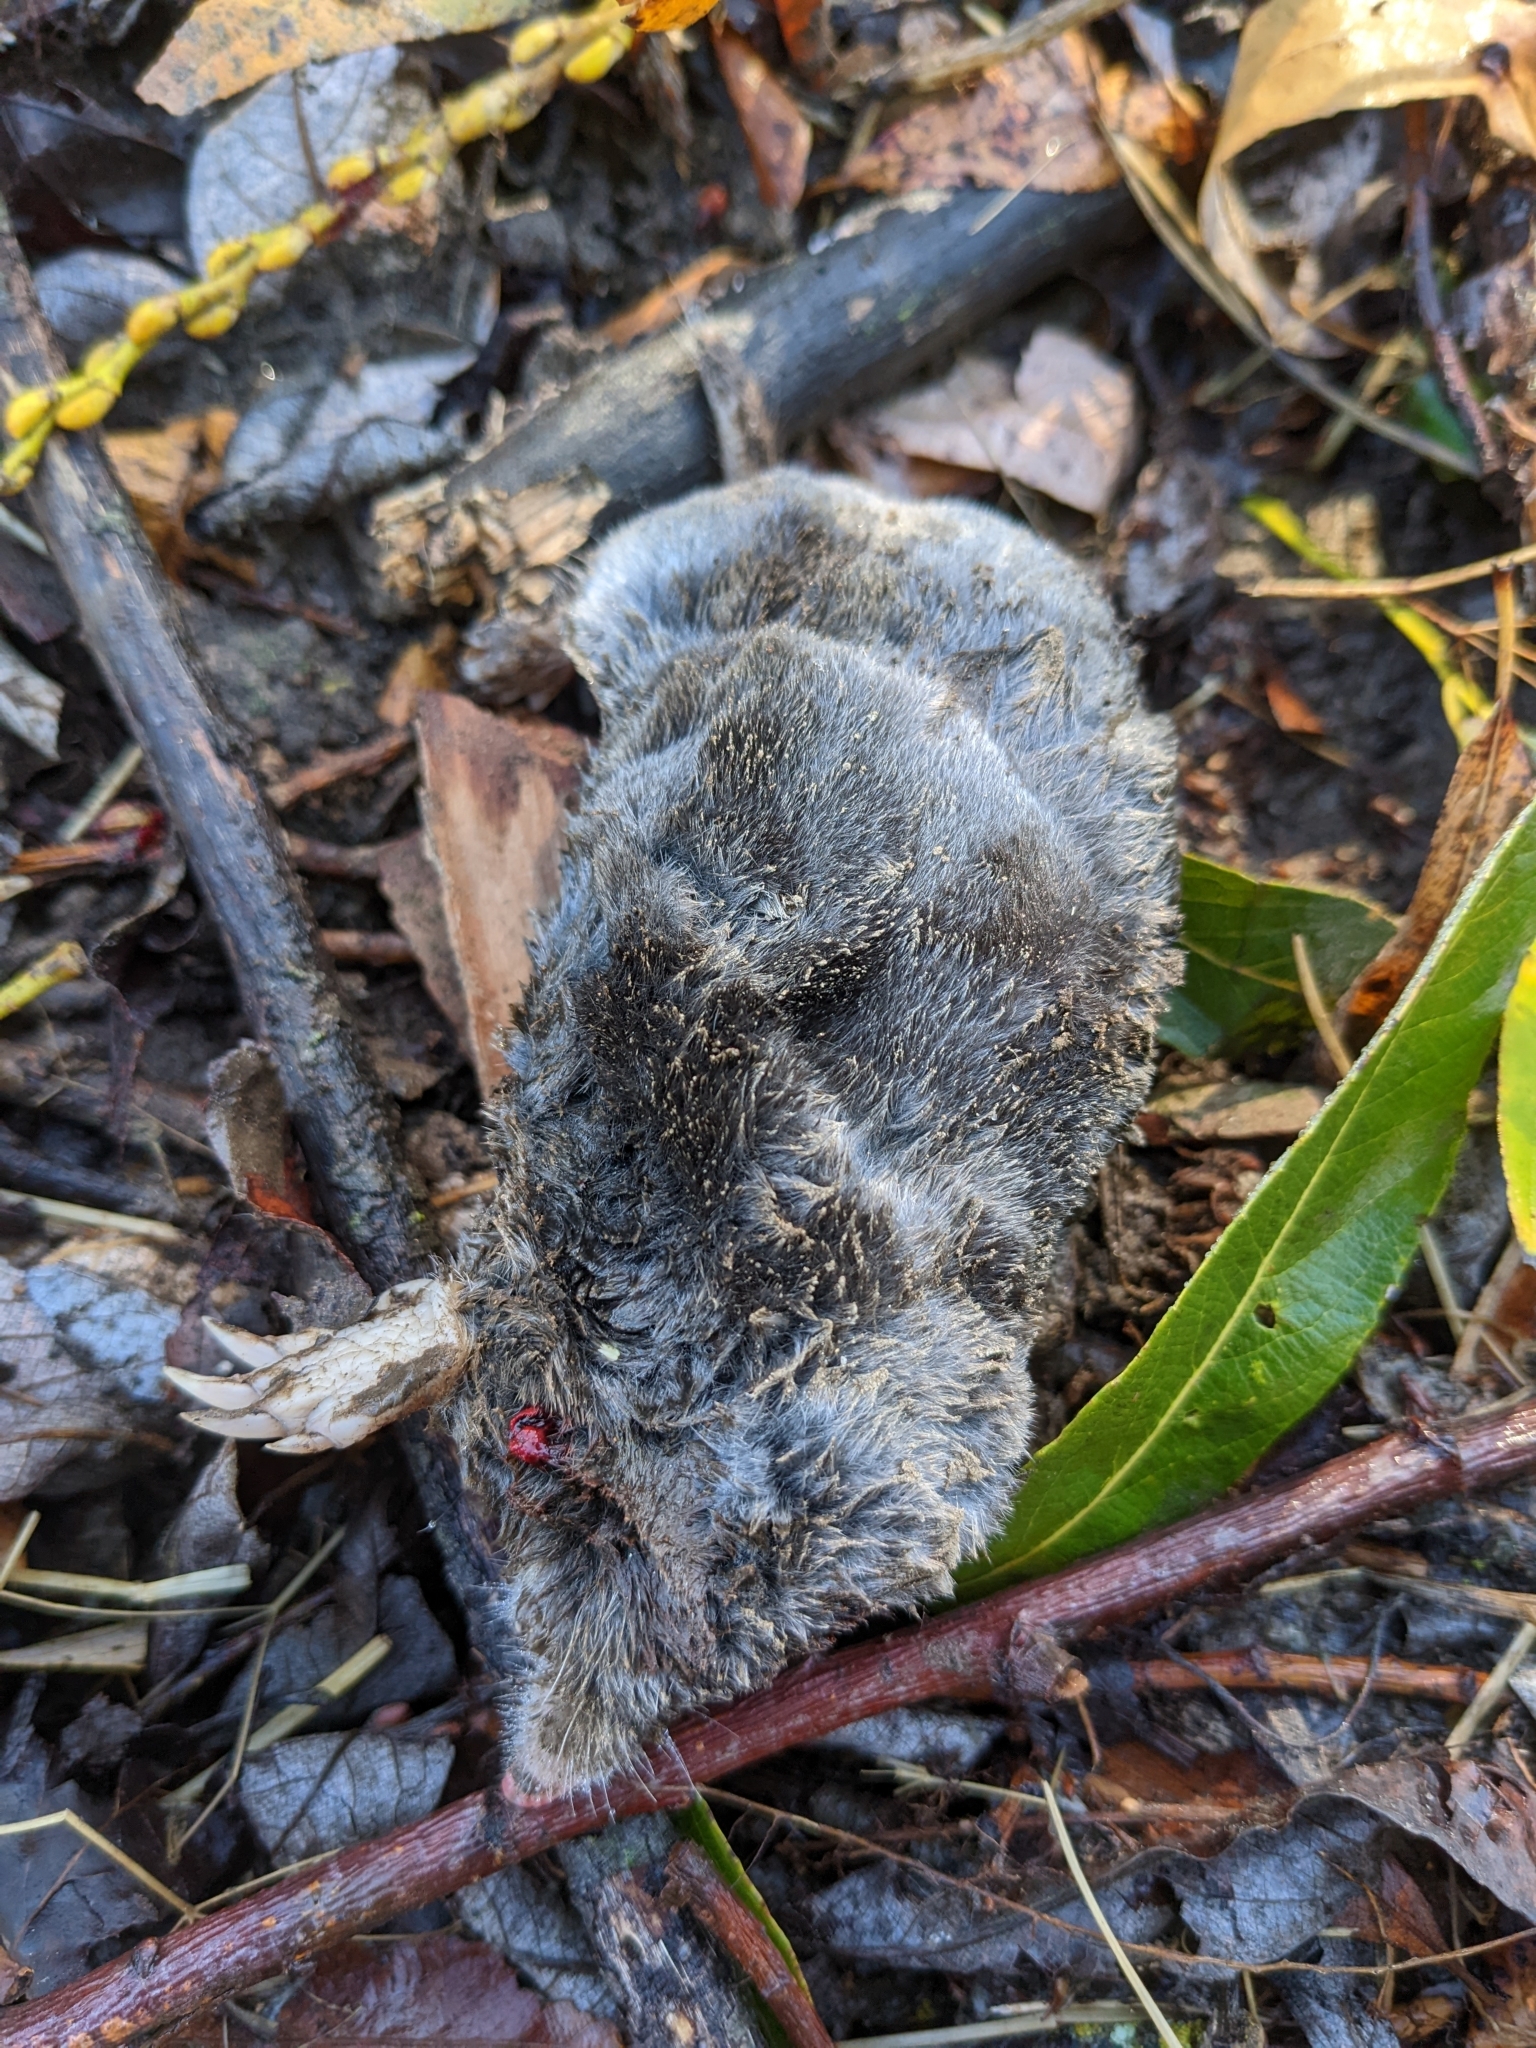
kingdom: Animalia
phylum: Chordata
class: Mammalia
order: Soricomorpha
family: Talpidae
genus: Scapanus
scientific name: Scapanus latimanus
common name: Broad-footed mole
